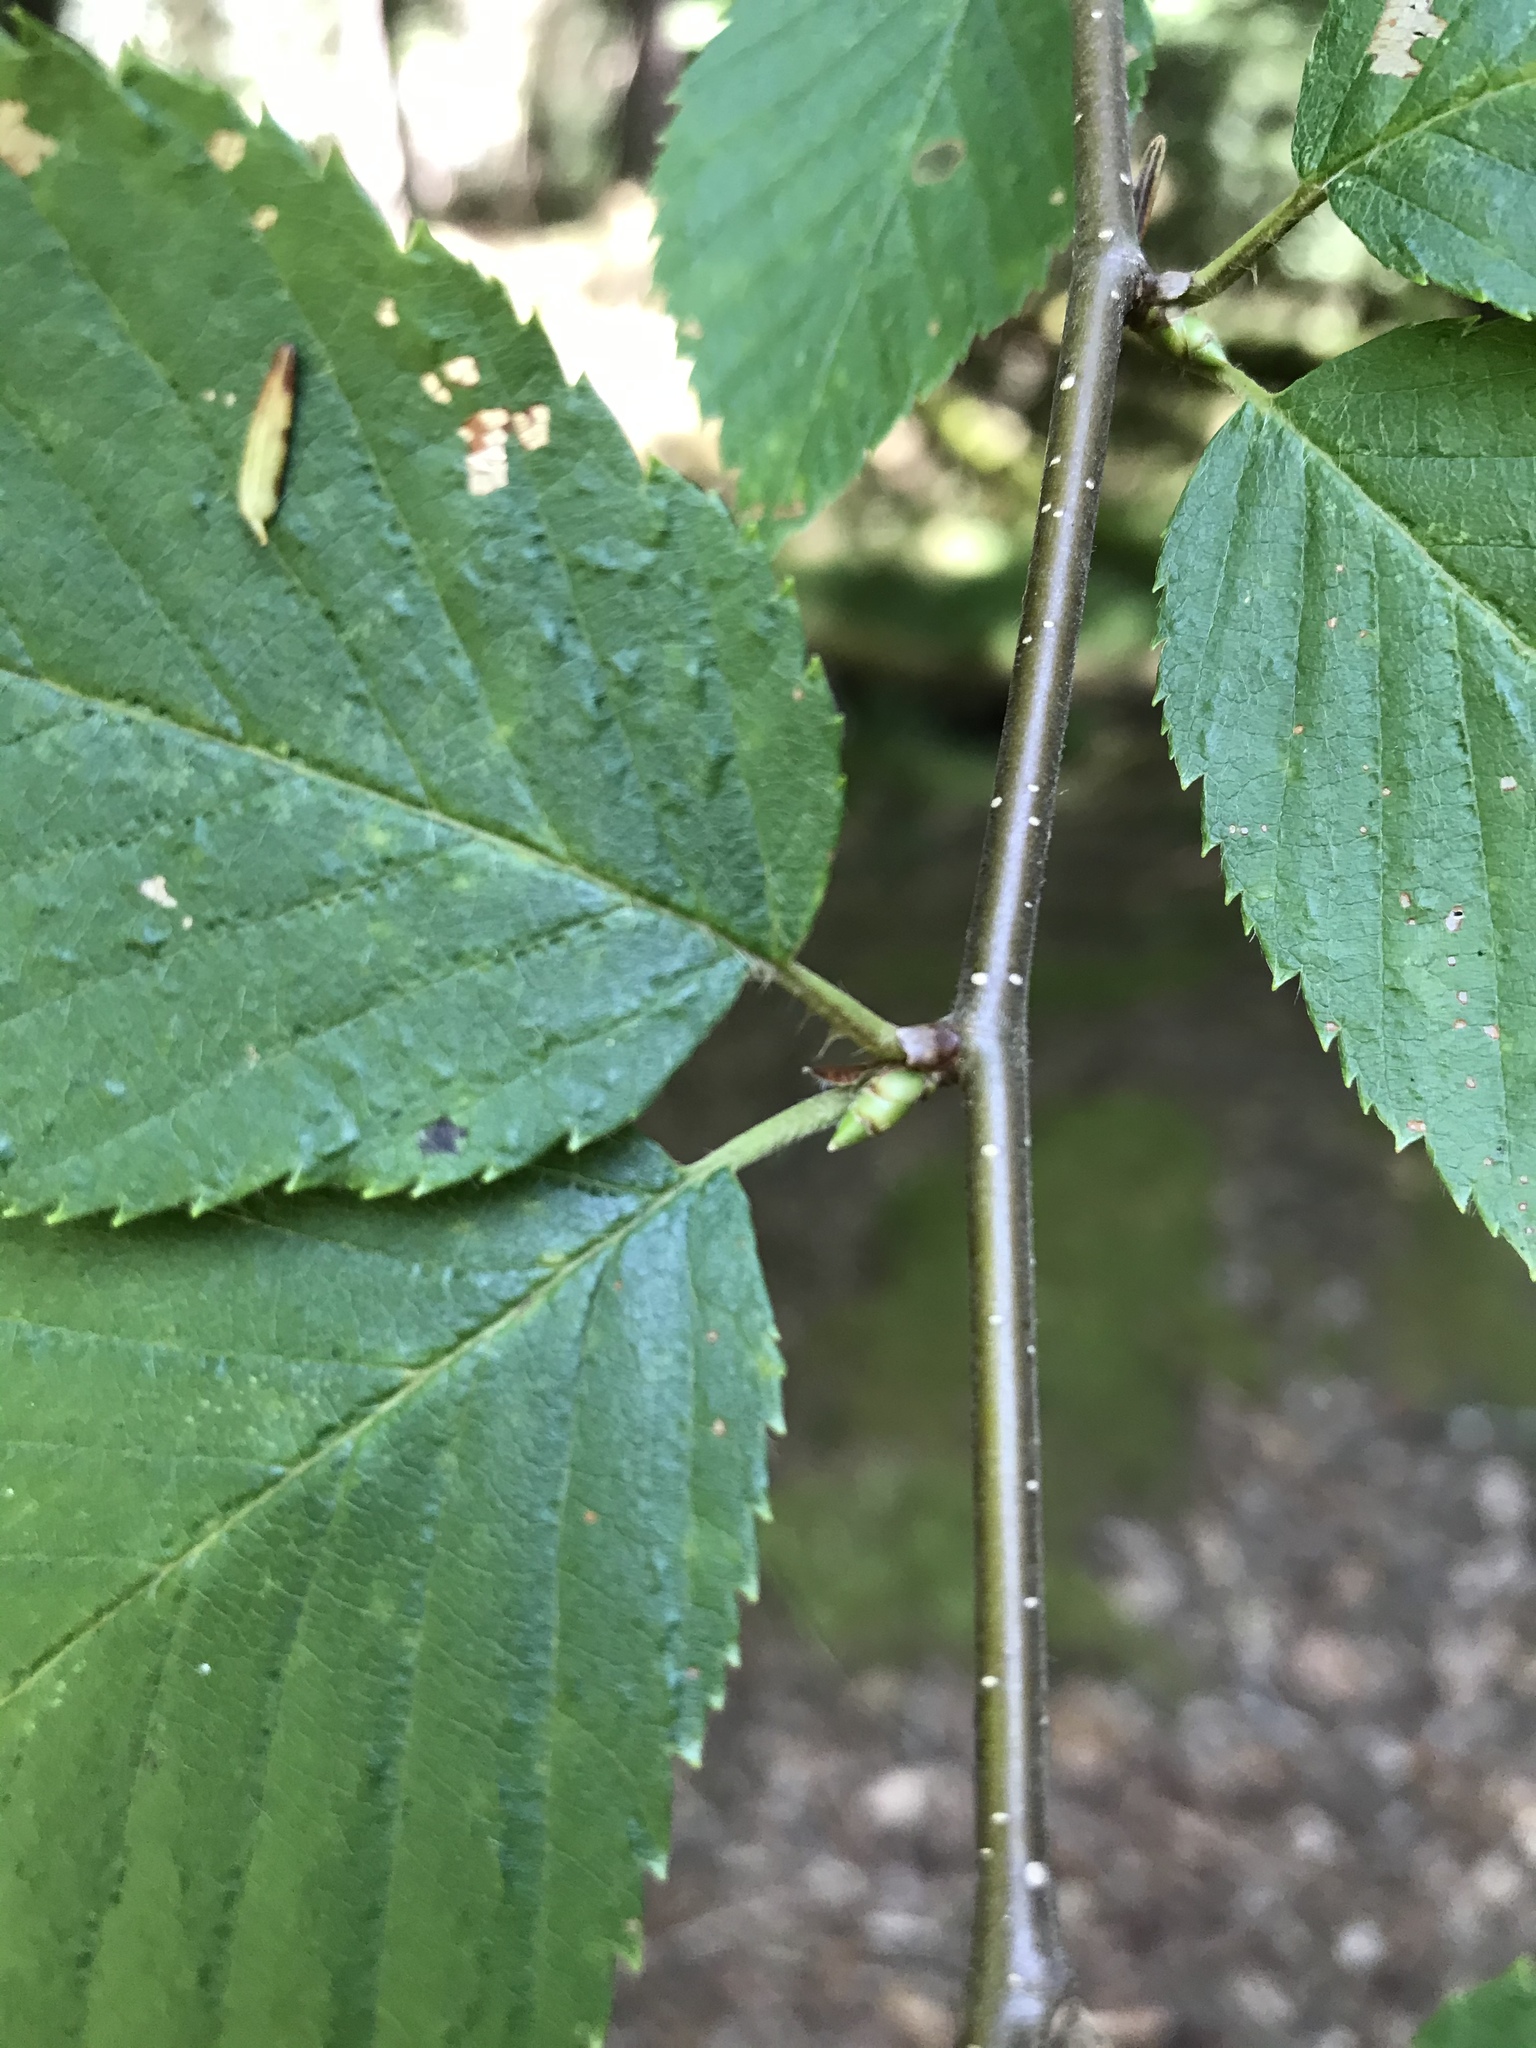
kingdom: Plantae
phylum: Tracheophyta
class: Magnoliopsida
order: Fagales
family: Betulaceae
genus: Betula
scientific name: Betula alleghaniensis
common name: Yellow birch
